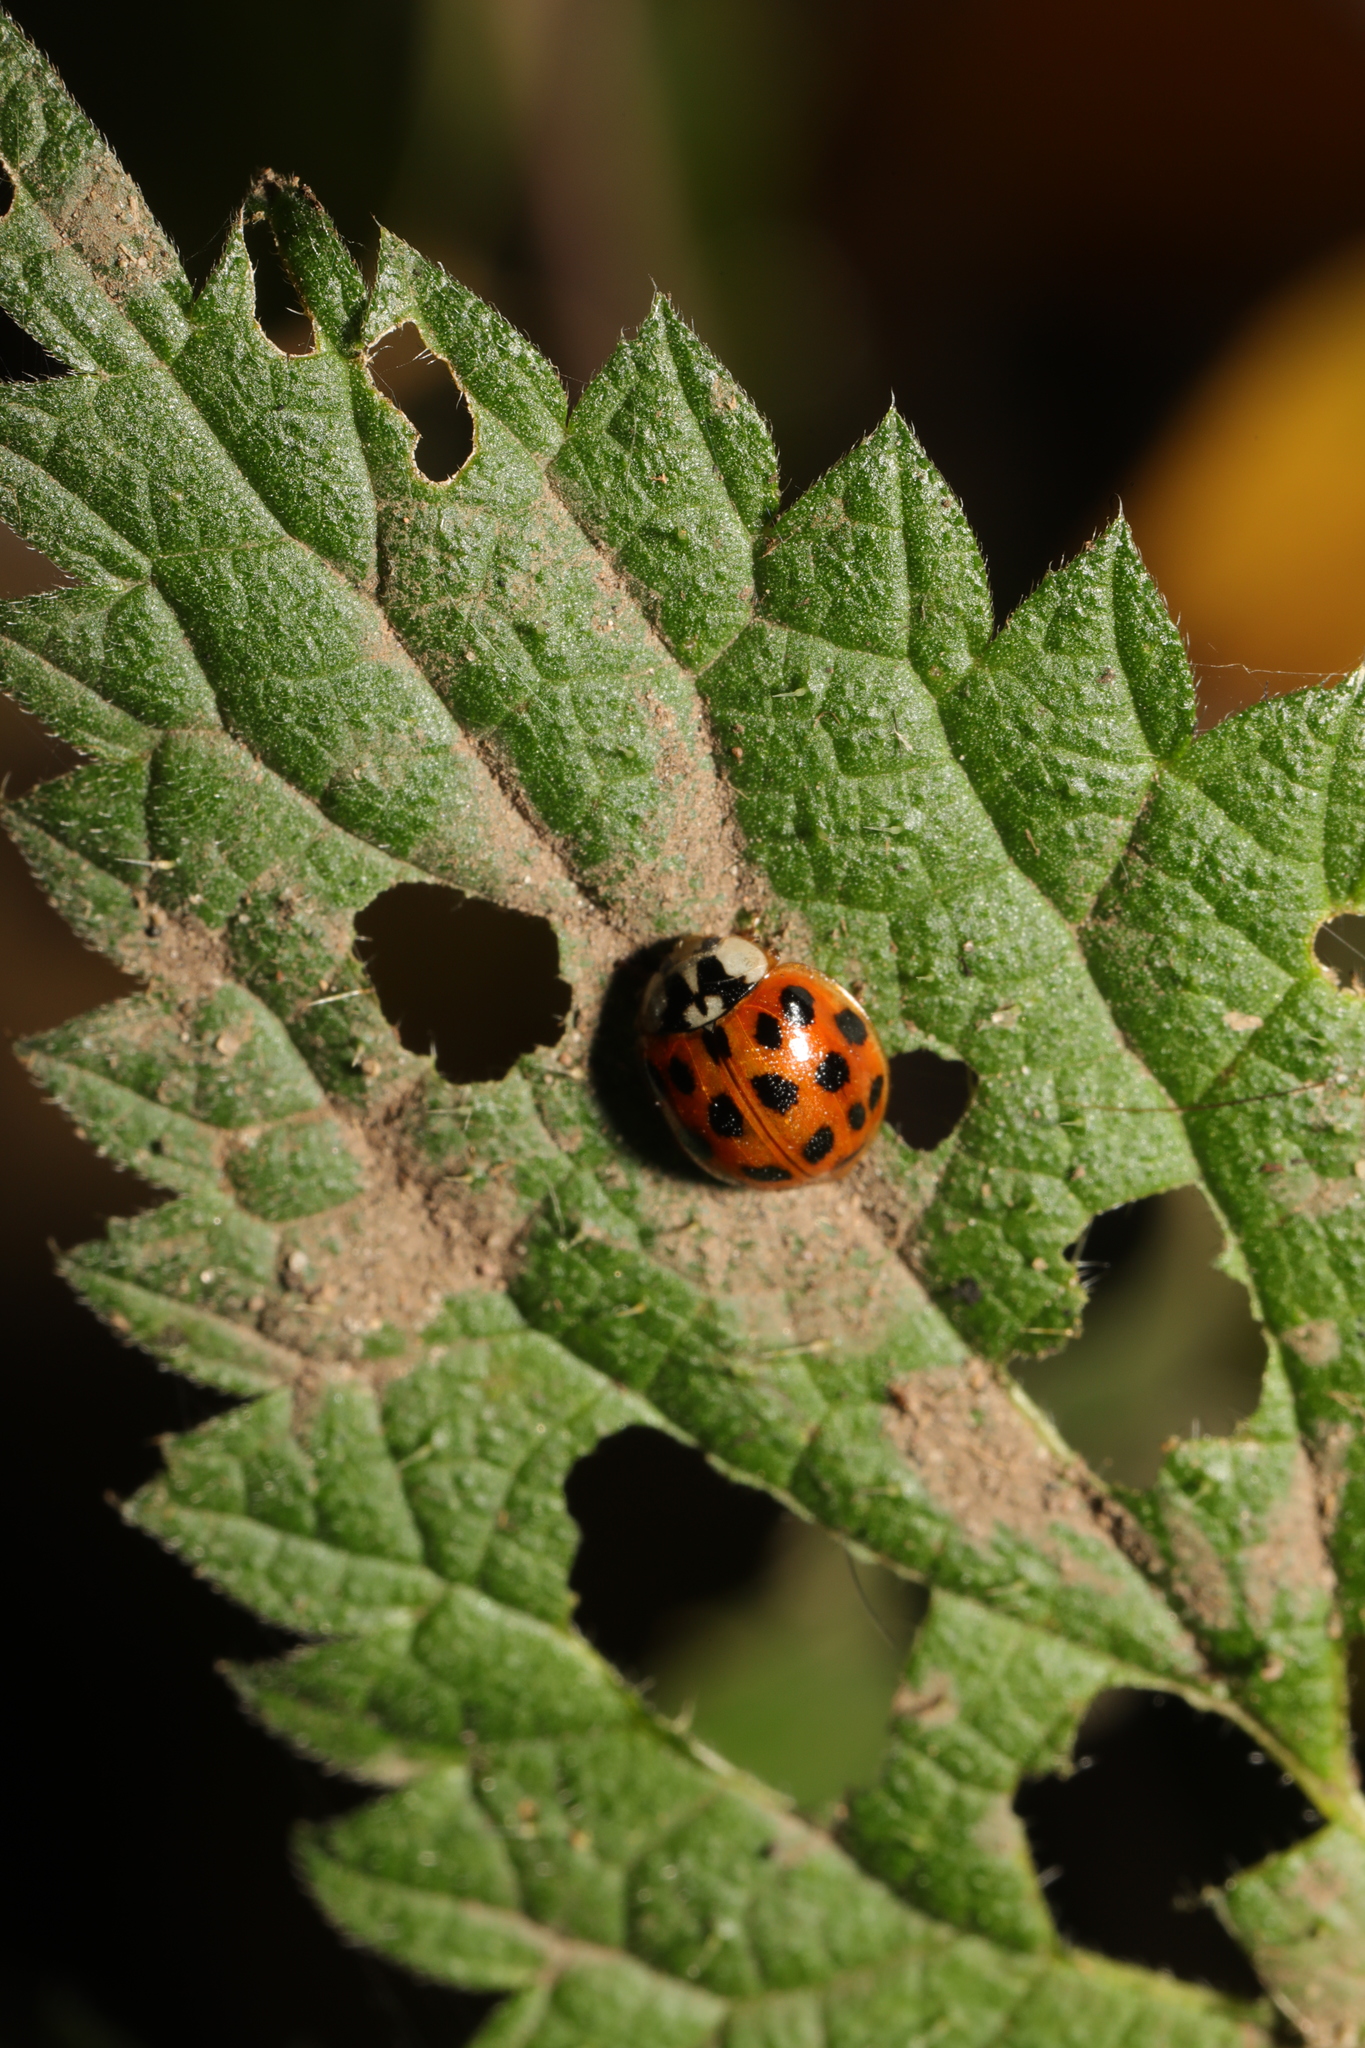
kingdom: Animalia
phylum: Arthropoda
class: Insecta
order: Coleoptera
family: Coccinellidae
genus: Harmonia
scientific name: Harmonia axyridis
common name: Harlequin ladybird
